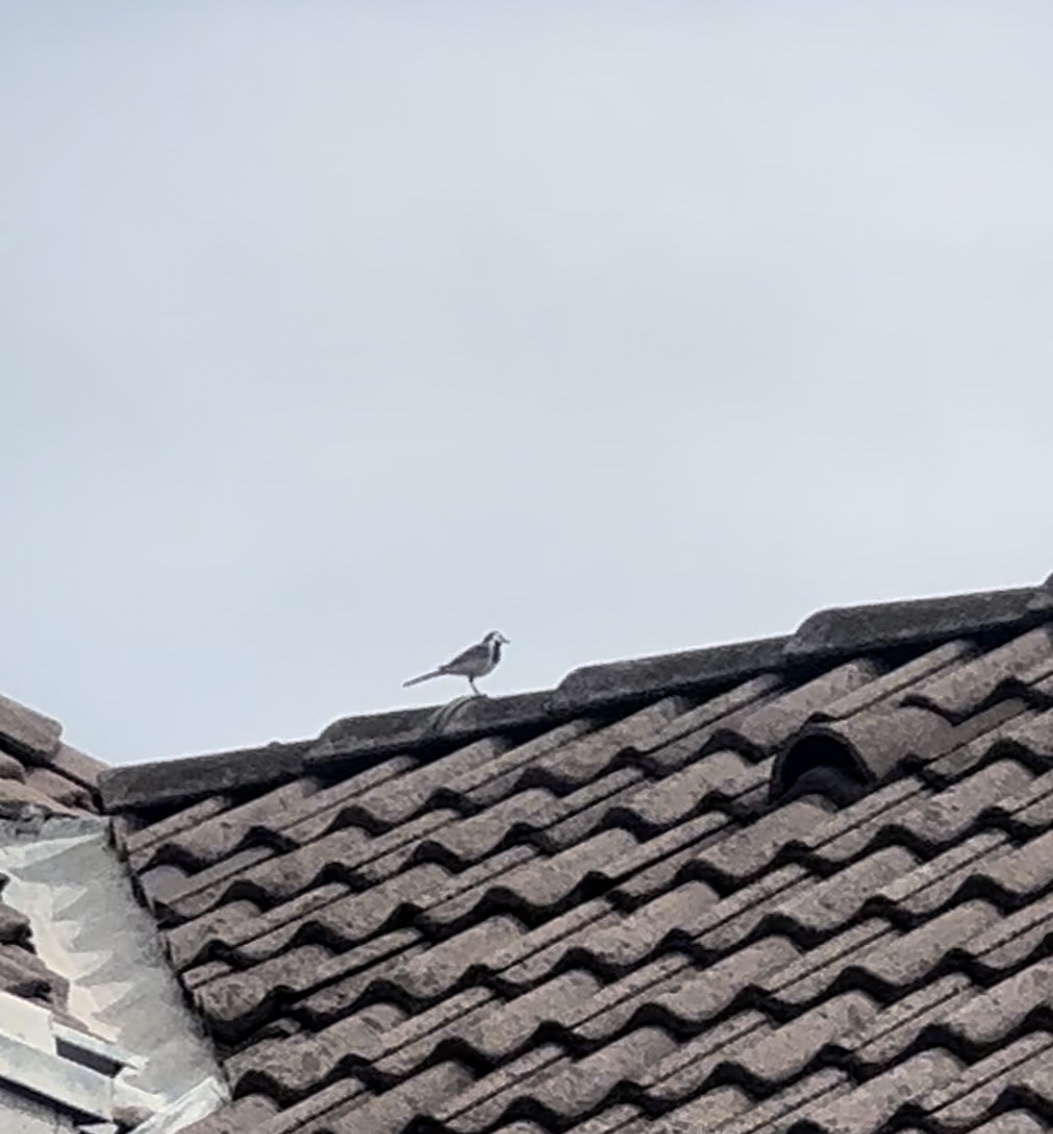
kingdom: Animalia
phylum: Chordata
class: Aves
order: Passeriformes
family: Motacillidae
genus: Motacilla
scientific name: Motacilla alba
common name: White wagtail
